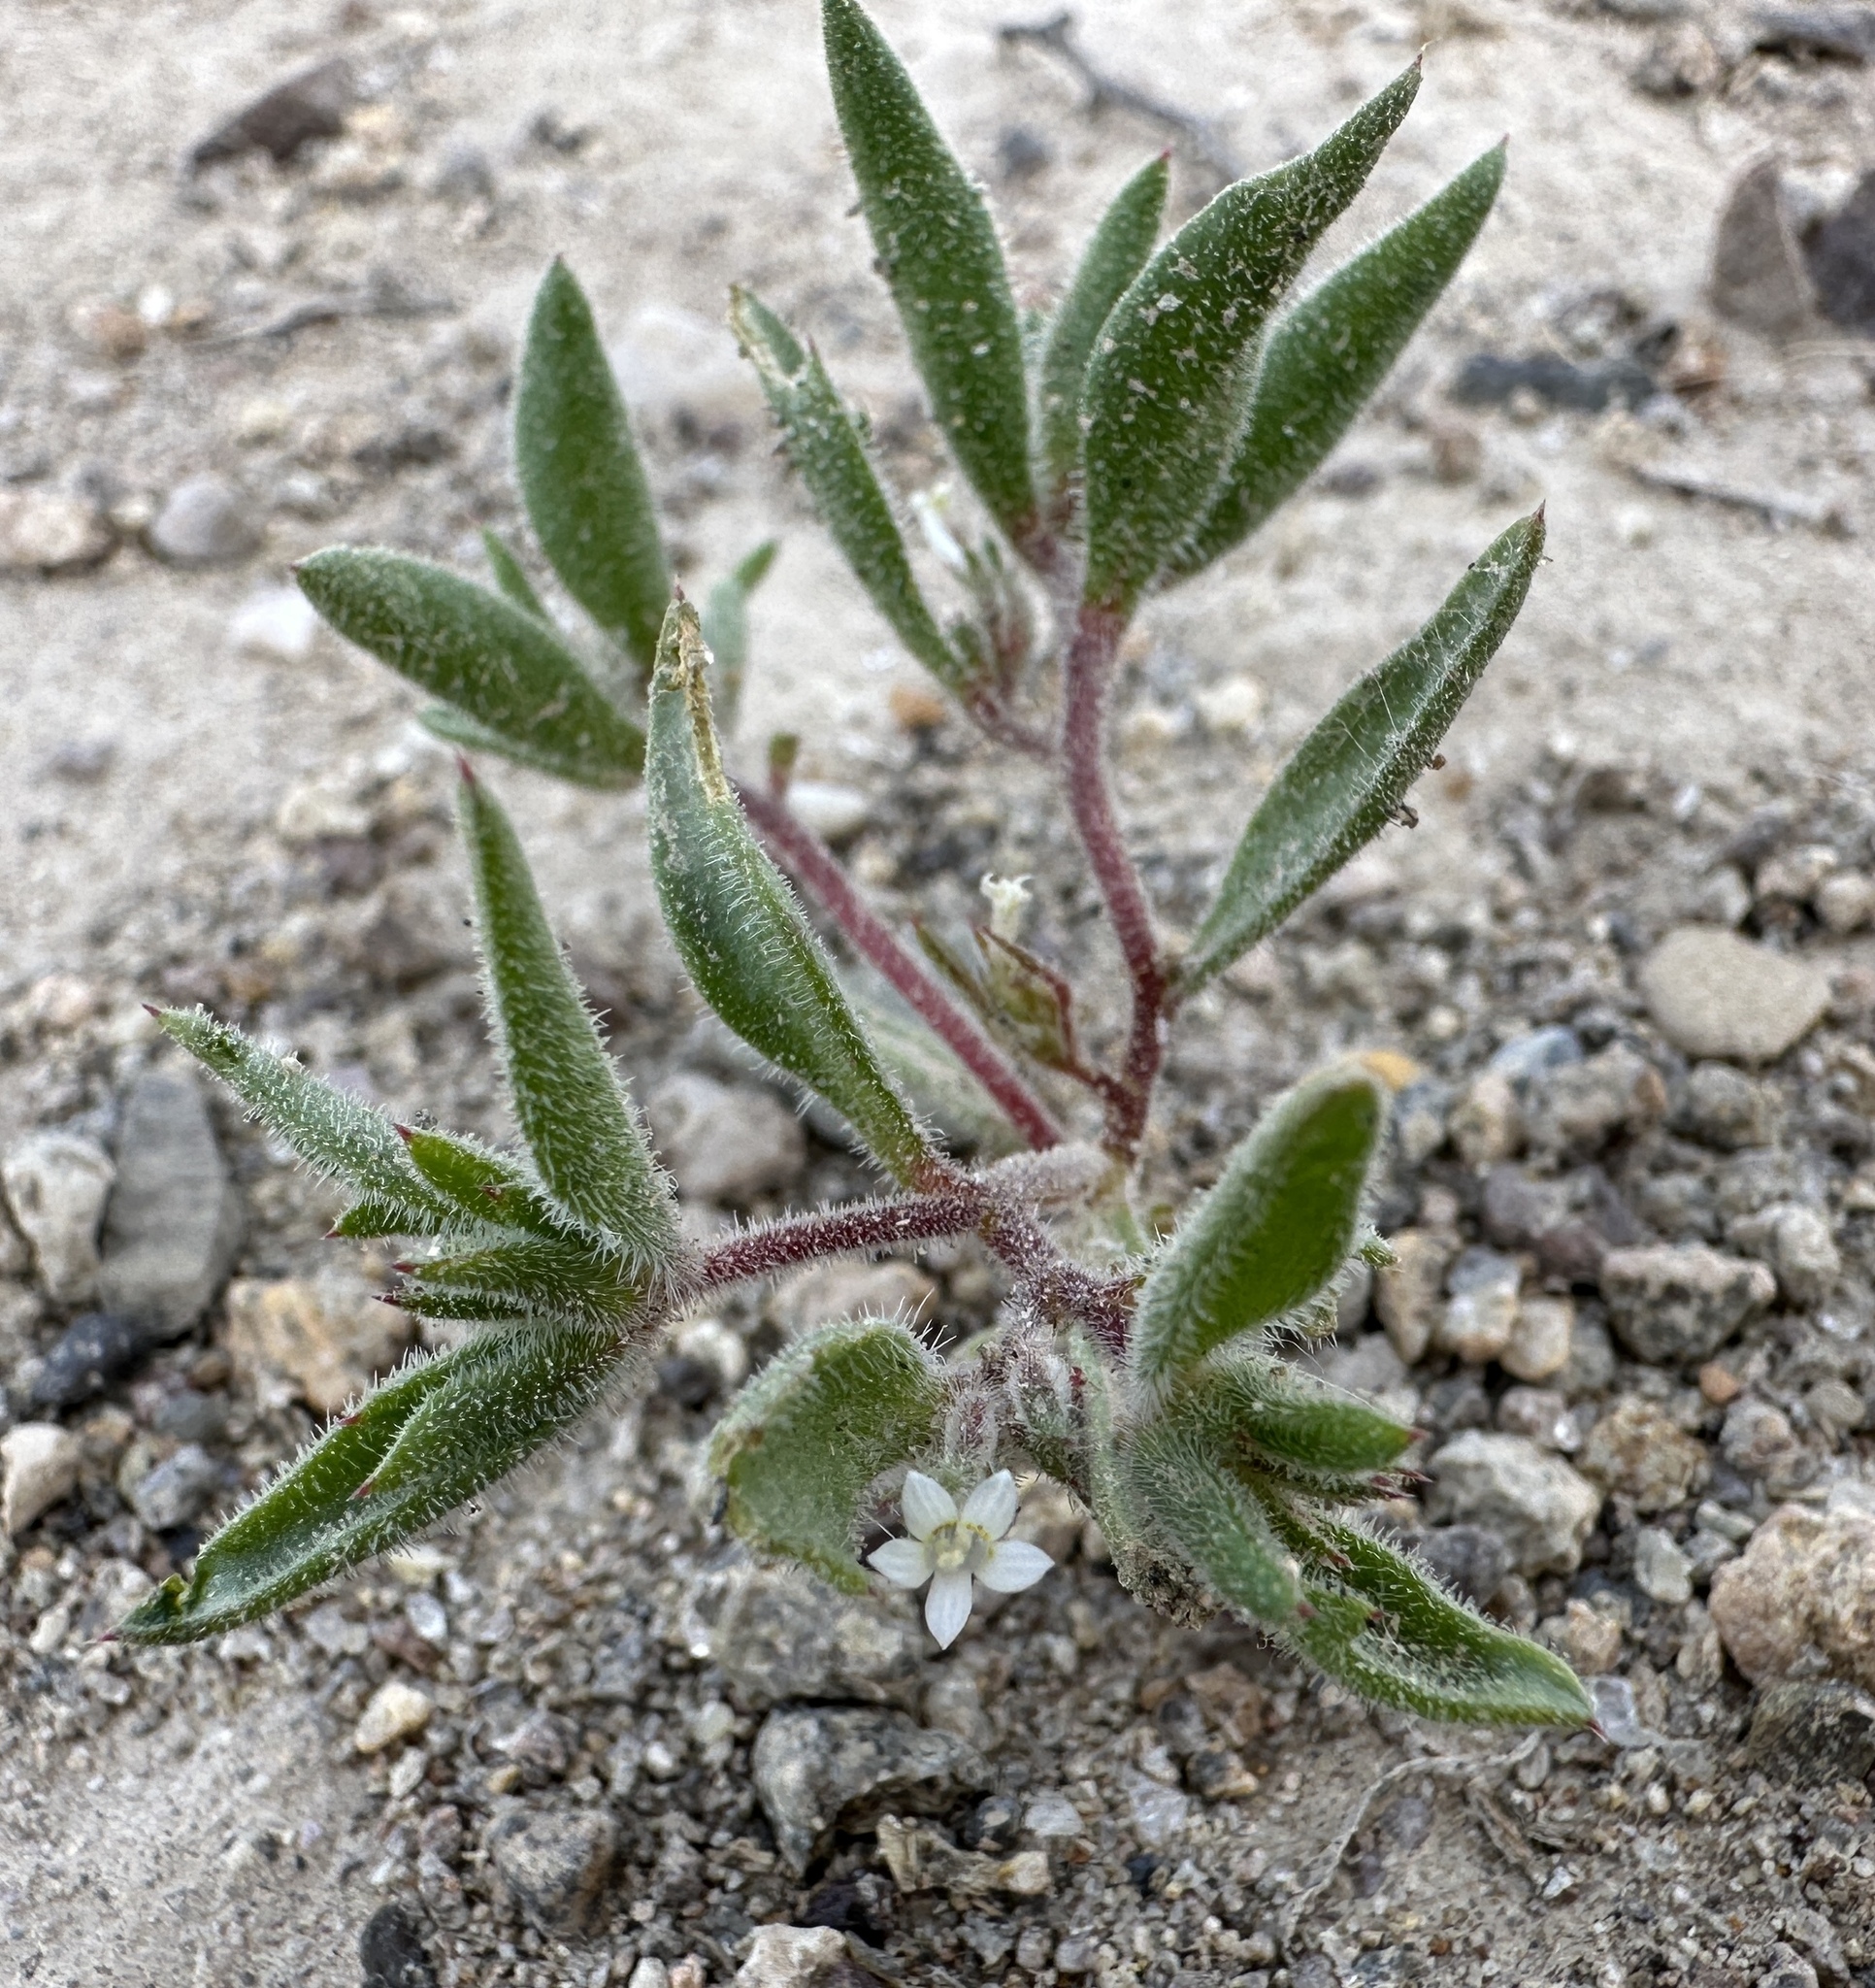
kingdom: Plantae
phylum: Tracheophyta
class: Magnoliopsida
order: Ericales
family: Polemoniaceae
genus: Loeseliastrum
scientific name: Loeseliastrum depressum
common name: Depressed ipomopsis
